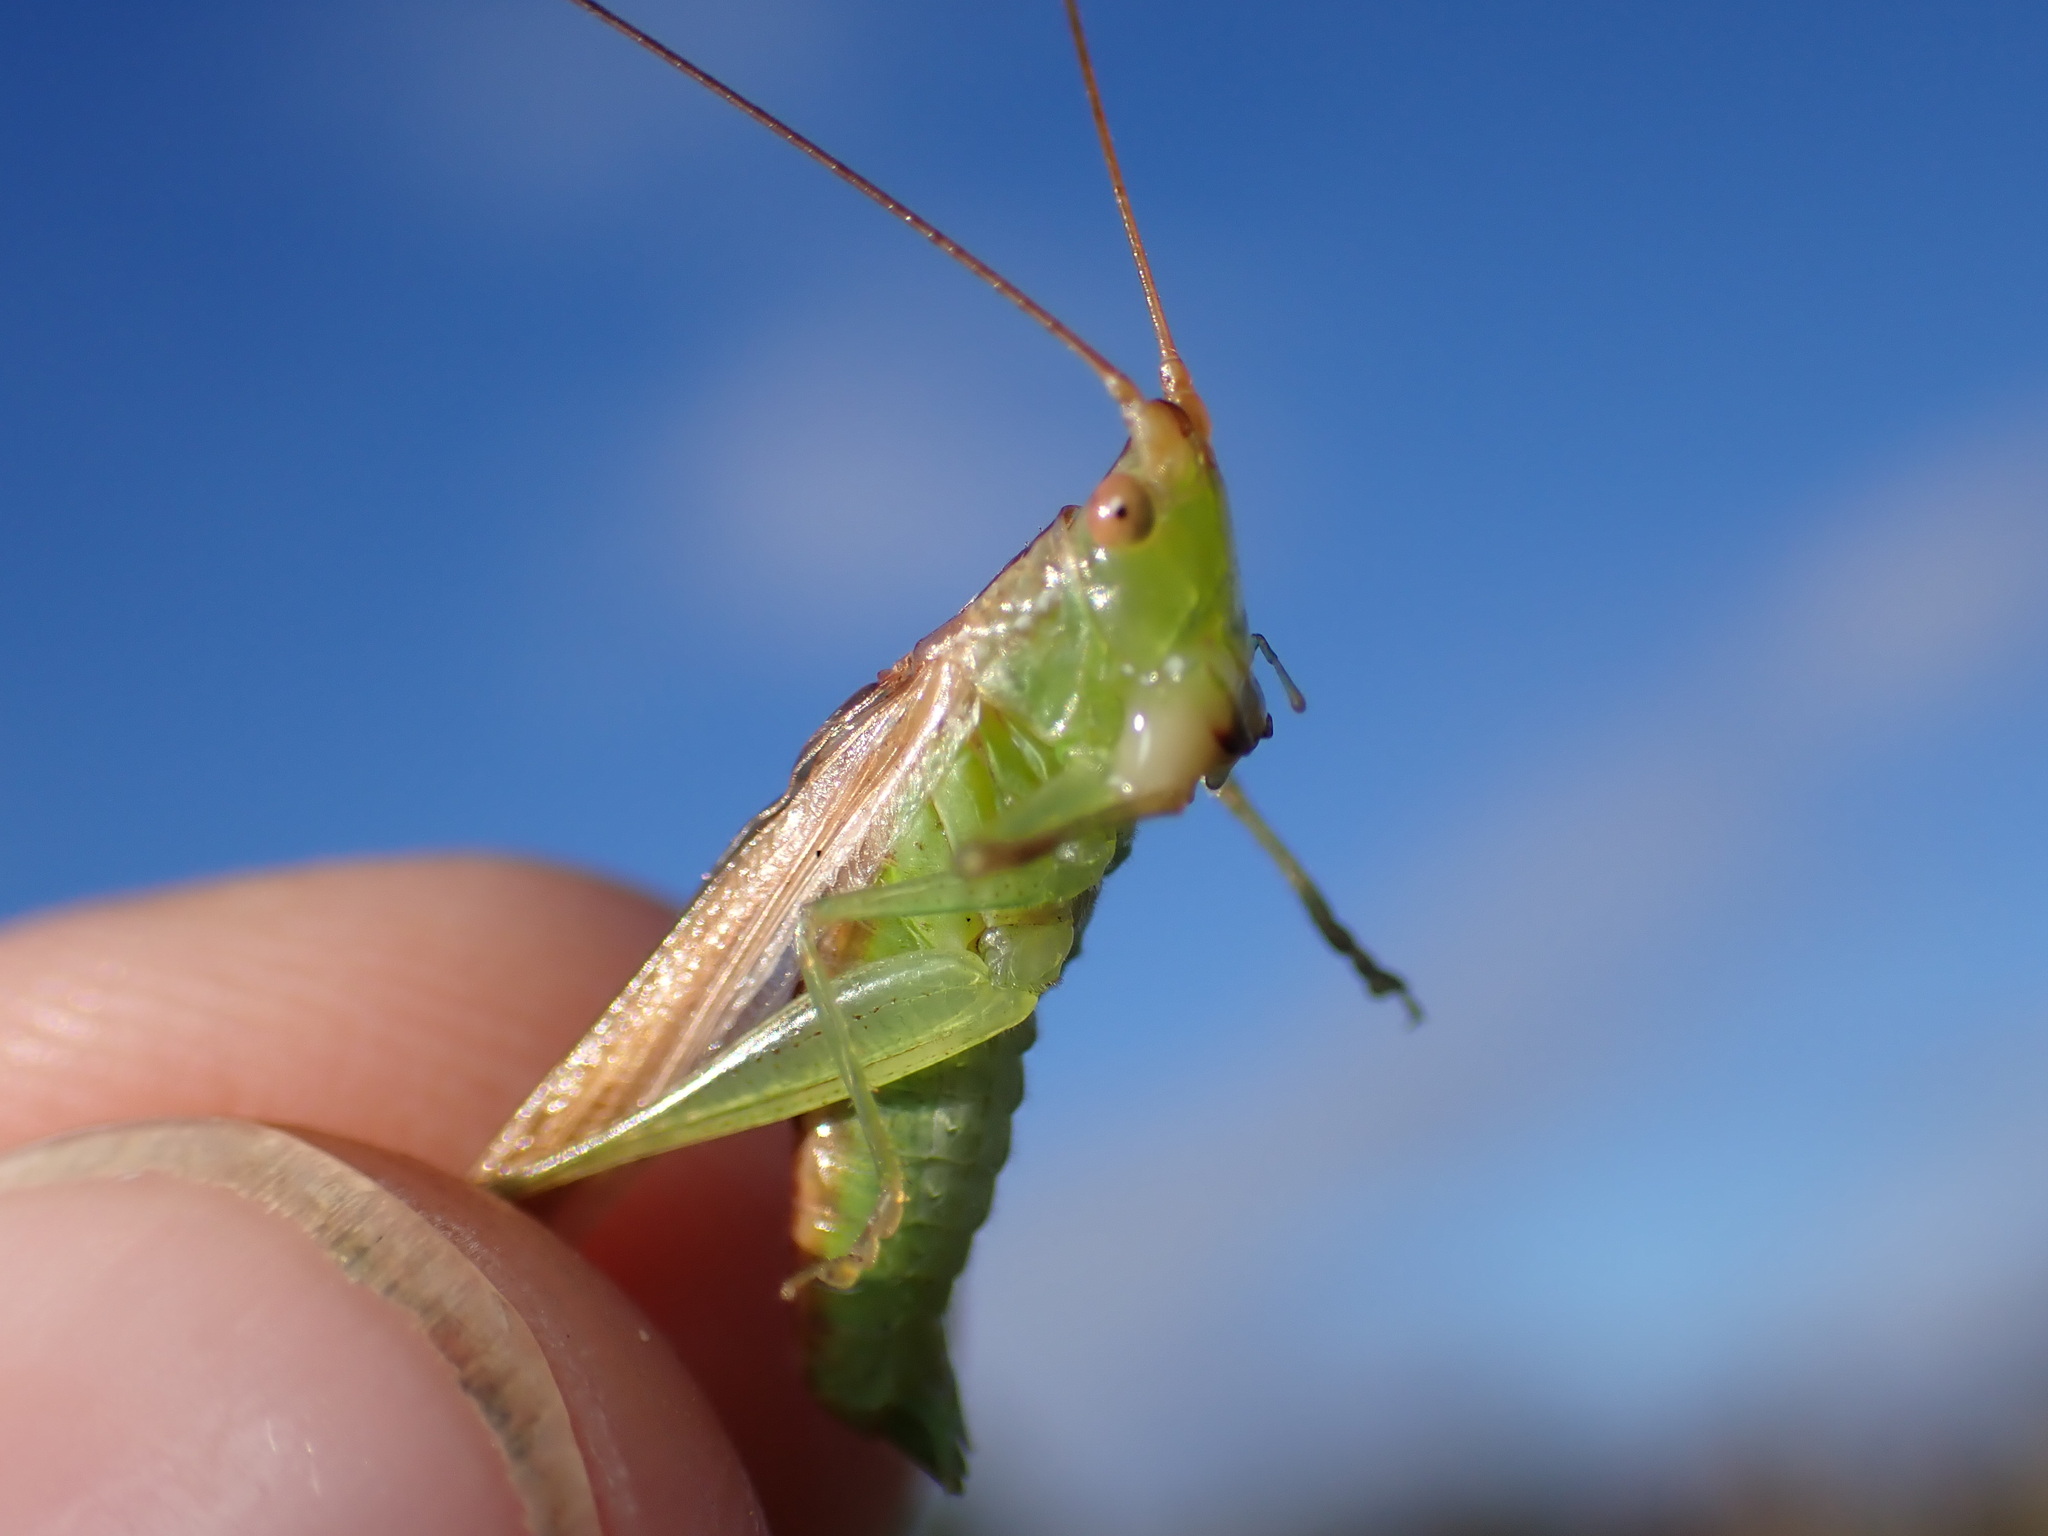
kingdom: Animalia
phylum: Arthropoda
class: Insecta
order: Orthoptera
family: Tettigoniidae
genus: Conocephalus
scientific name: Conocephalus conocephalus
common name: African meadow katydid
